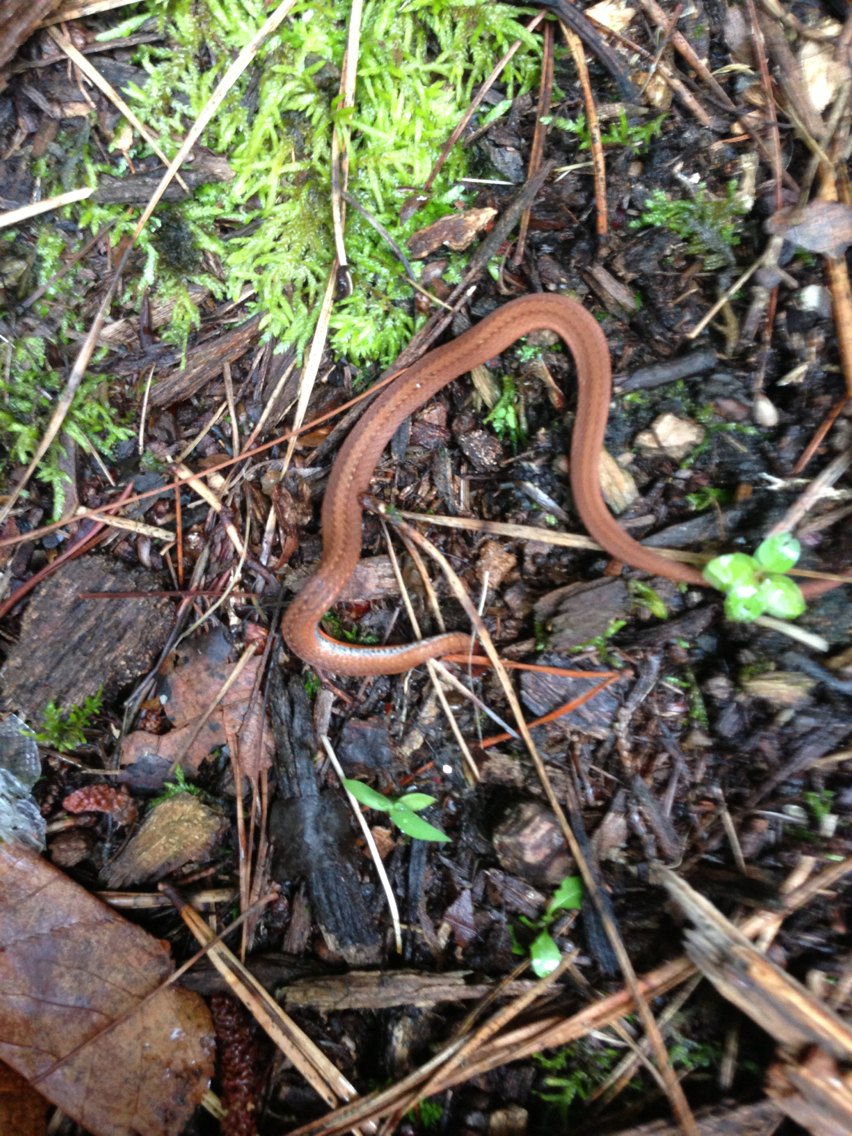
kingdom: Animalia
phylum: Chordata
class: Squamata
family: Colubridae
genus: Storeria
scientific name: Storeria occipitomaculata
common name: Redbelly snake
